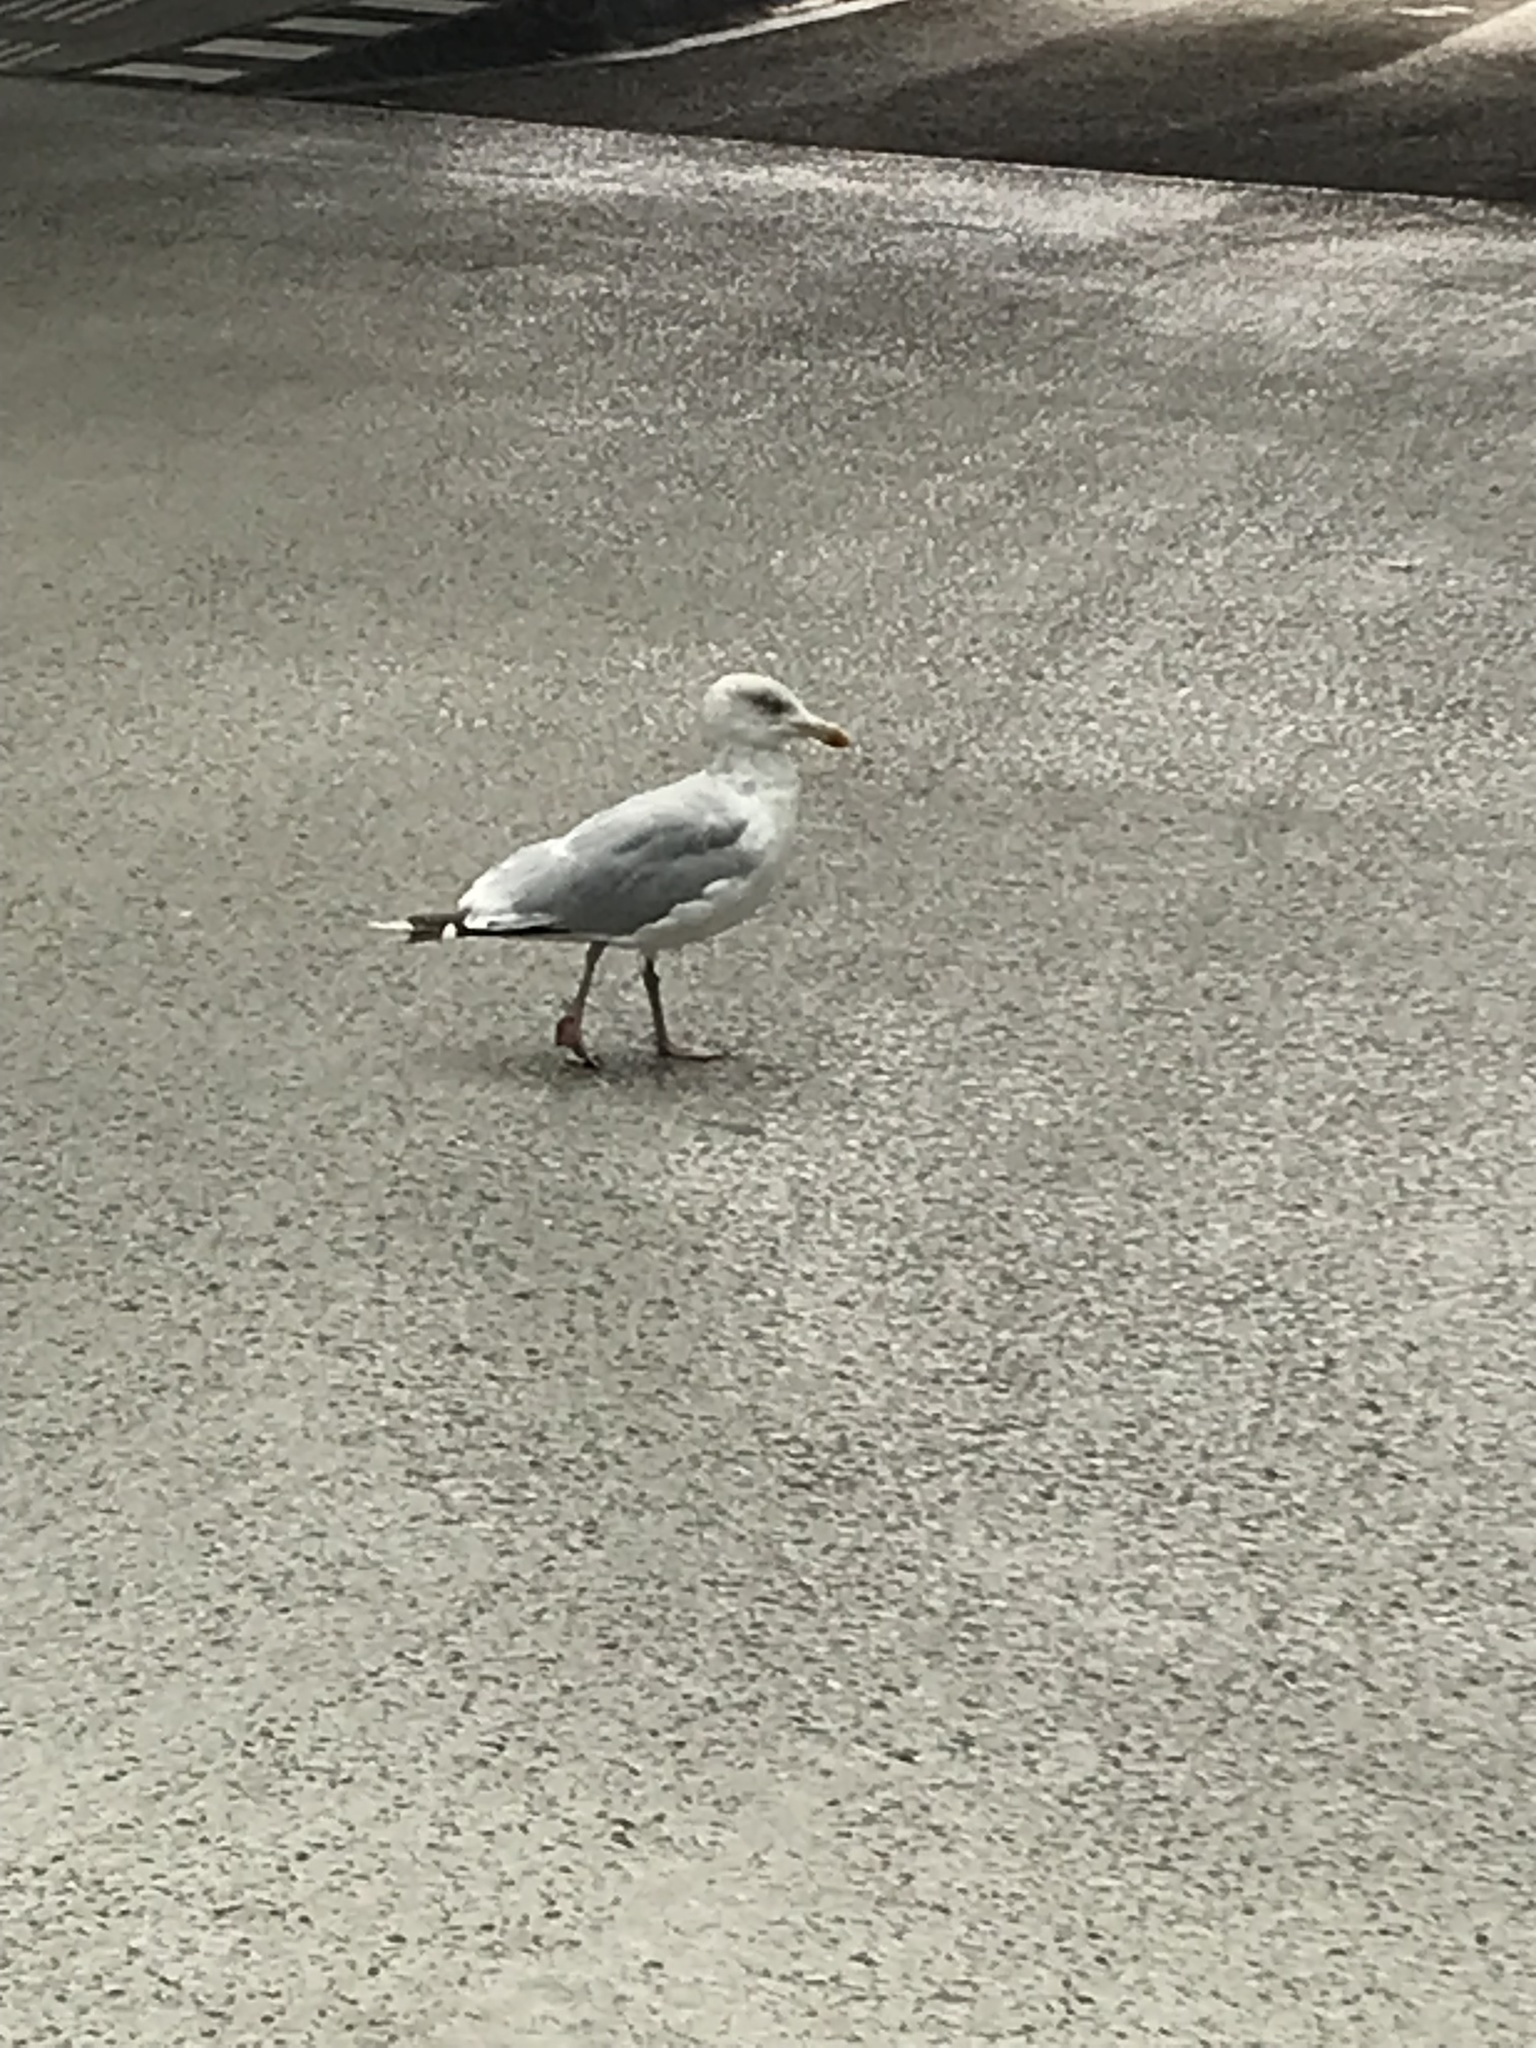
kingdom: Animalia
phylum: Chordata
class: Aves
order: Charadriiformes
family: Laridae
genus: Larus
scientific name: Larus argentatus
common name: Herring gull
